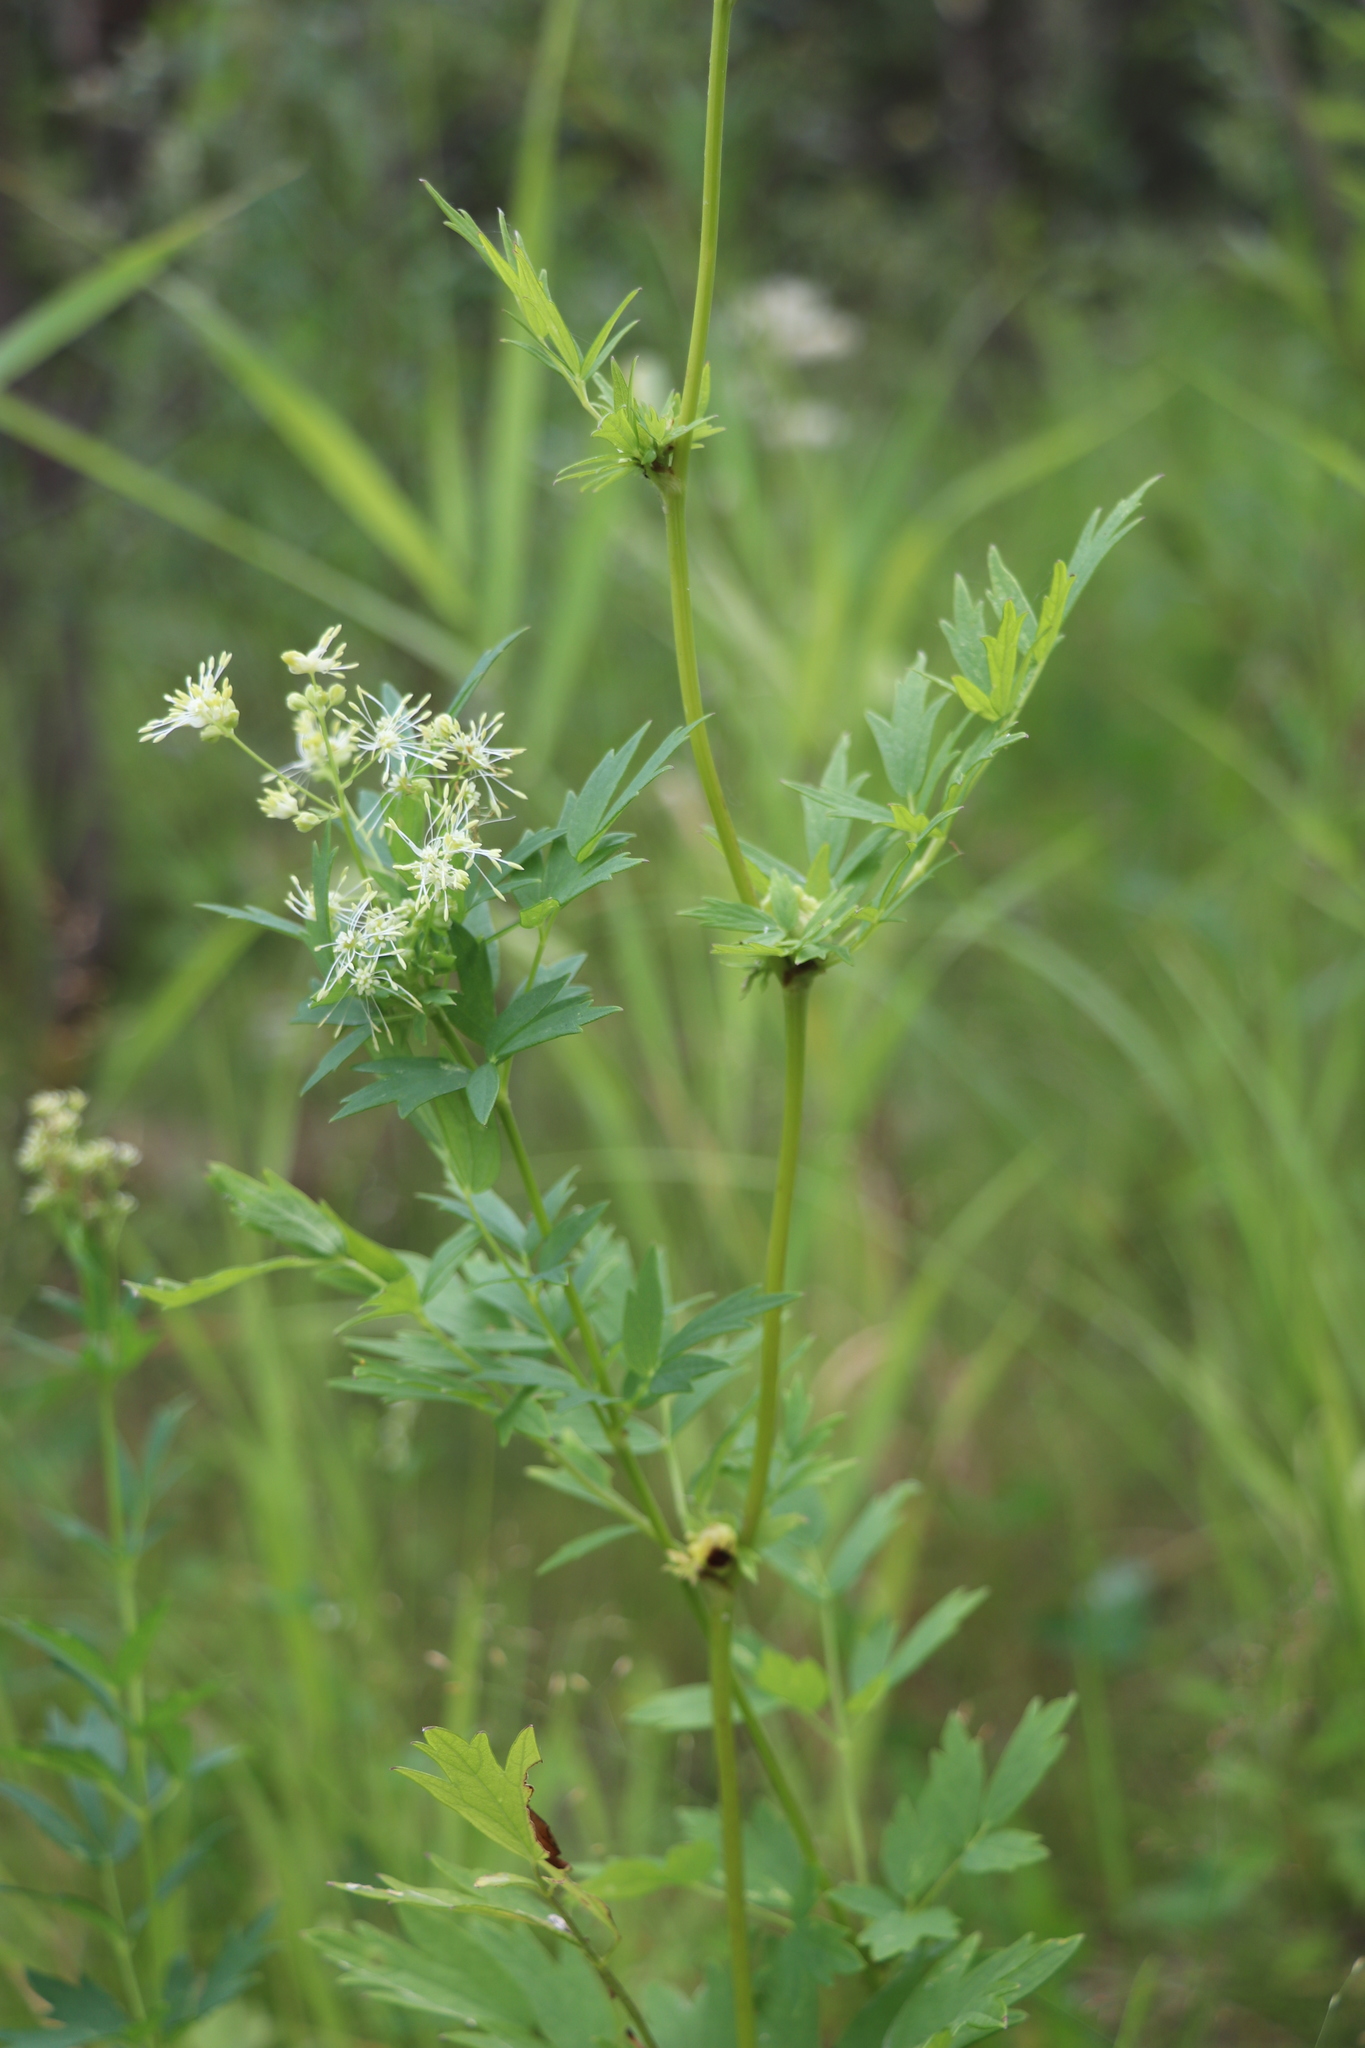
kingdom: Plantae
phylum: Tracheophyta
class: Magnoliopsida
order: Ranunculales
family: Ranunculaceae
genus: Thalictrum
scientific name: Thalictrum simplex
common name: Small meadow-rue
